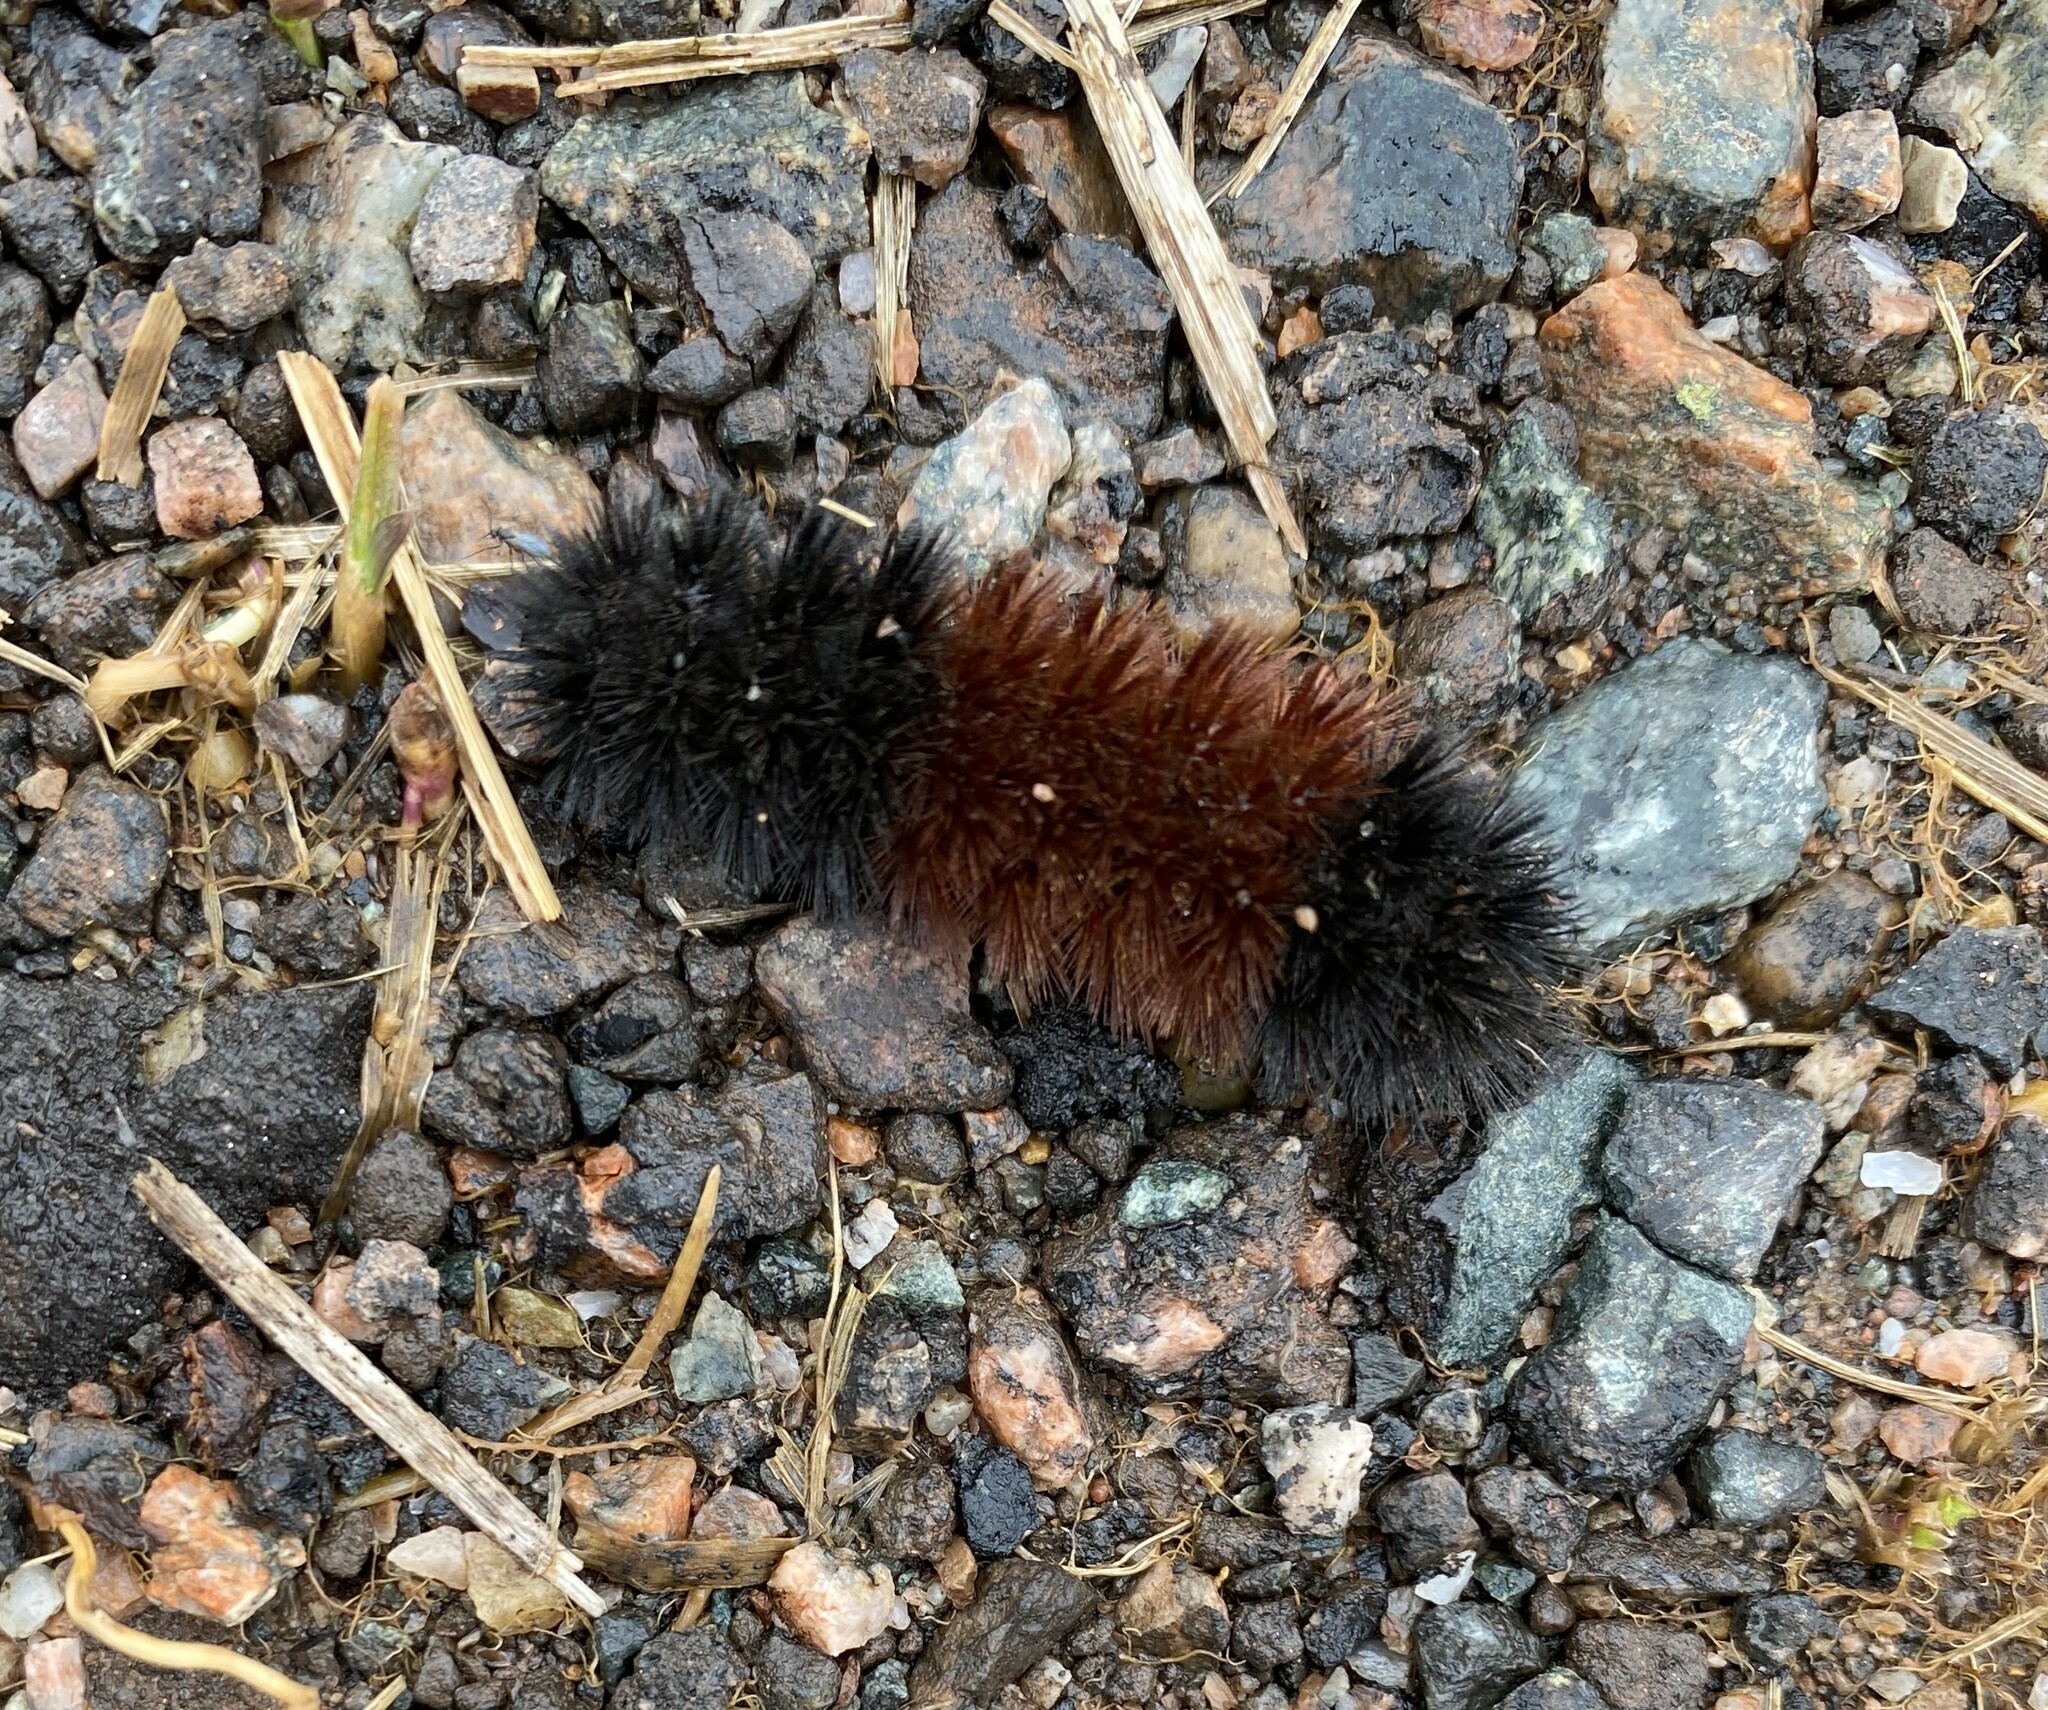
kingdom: Animalia
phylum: Arthropoda
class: Insecta
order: Lepidoptera
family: Erebidae
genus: Pyrrharctia
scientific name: Pyrrharctia isabella
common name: Isabella tiger moth
